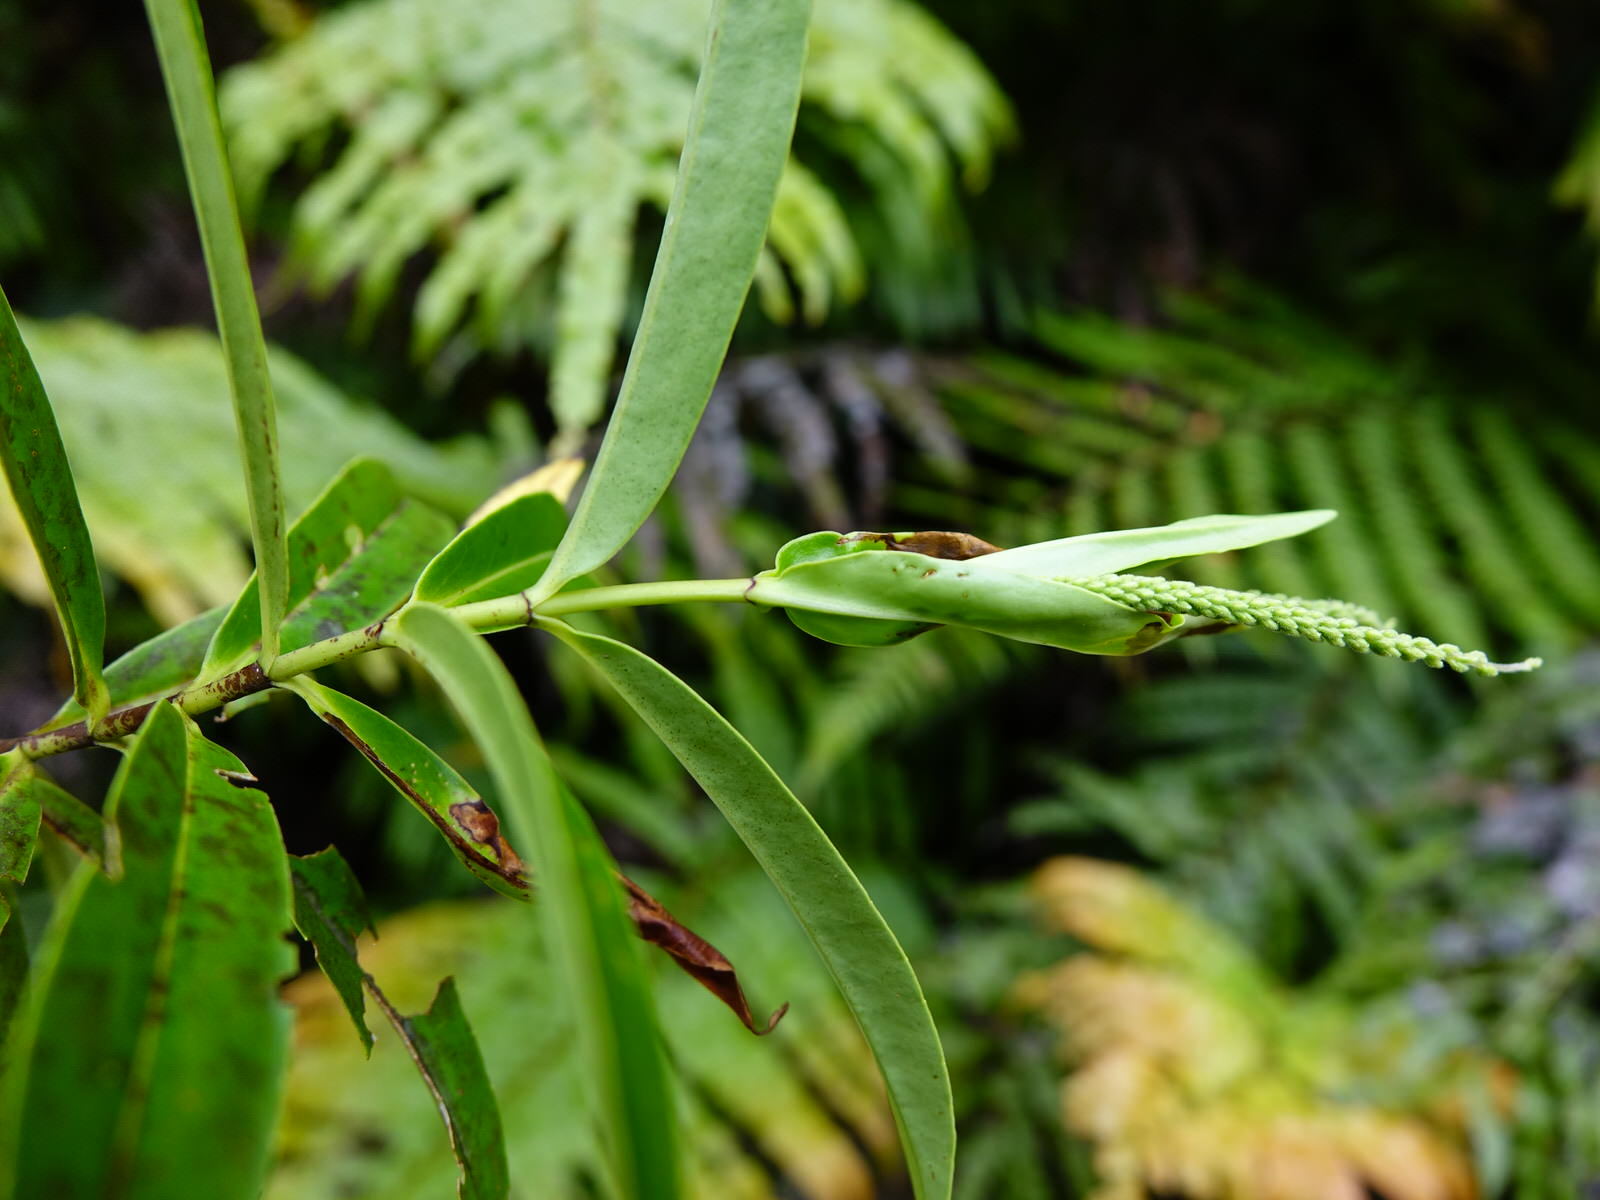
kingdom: Plantae
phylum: Tracheophyta
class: Magnoliopsida
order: Lamiales
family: Plantaginaceae
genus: Veronica
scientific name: Veronica stricta
